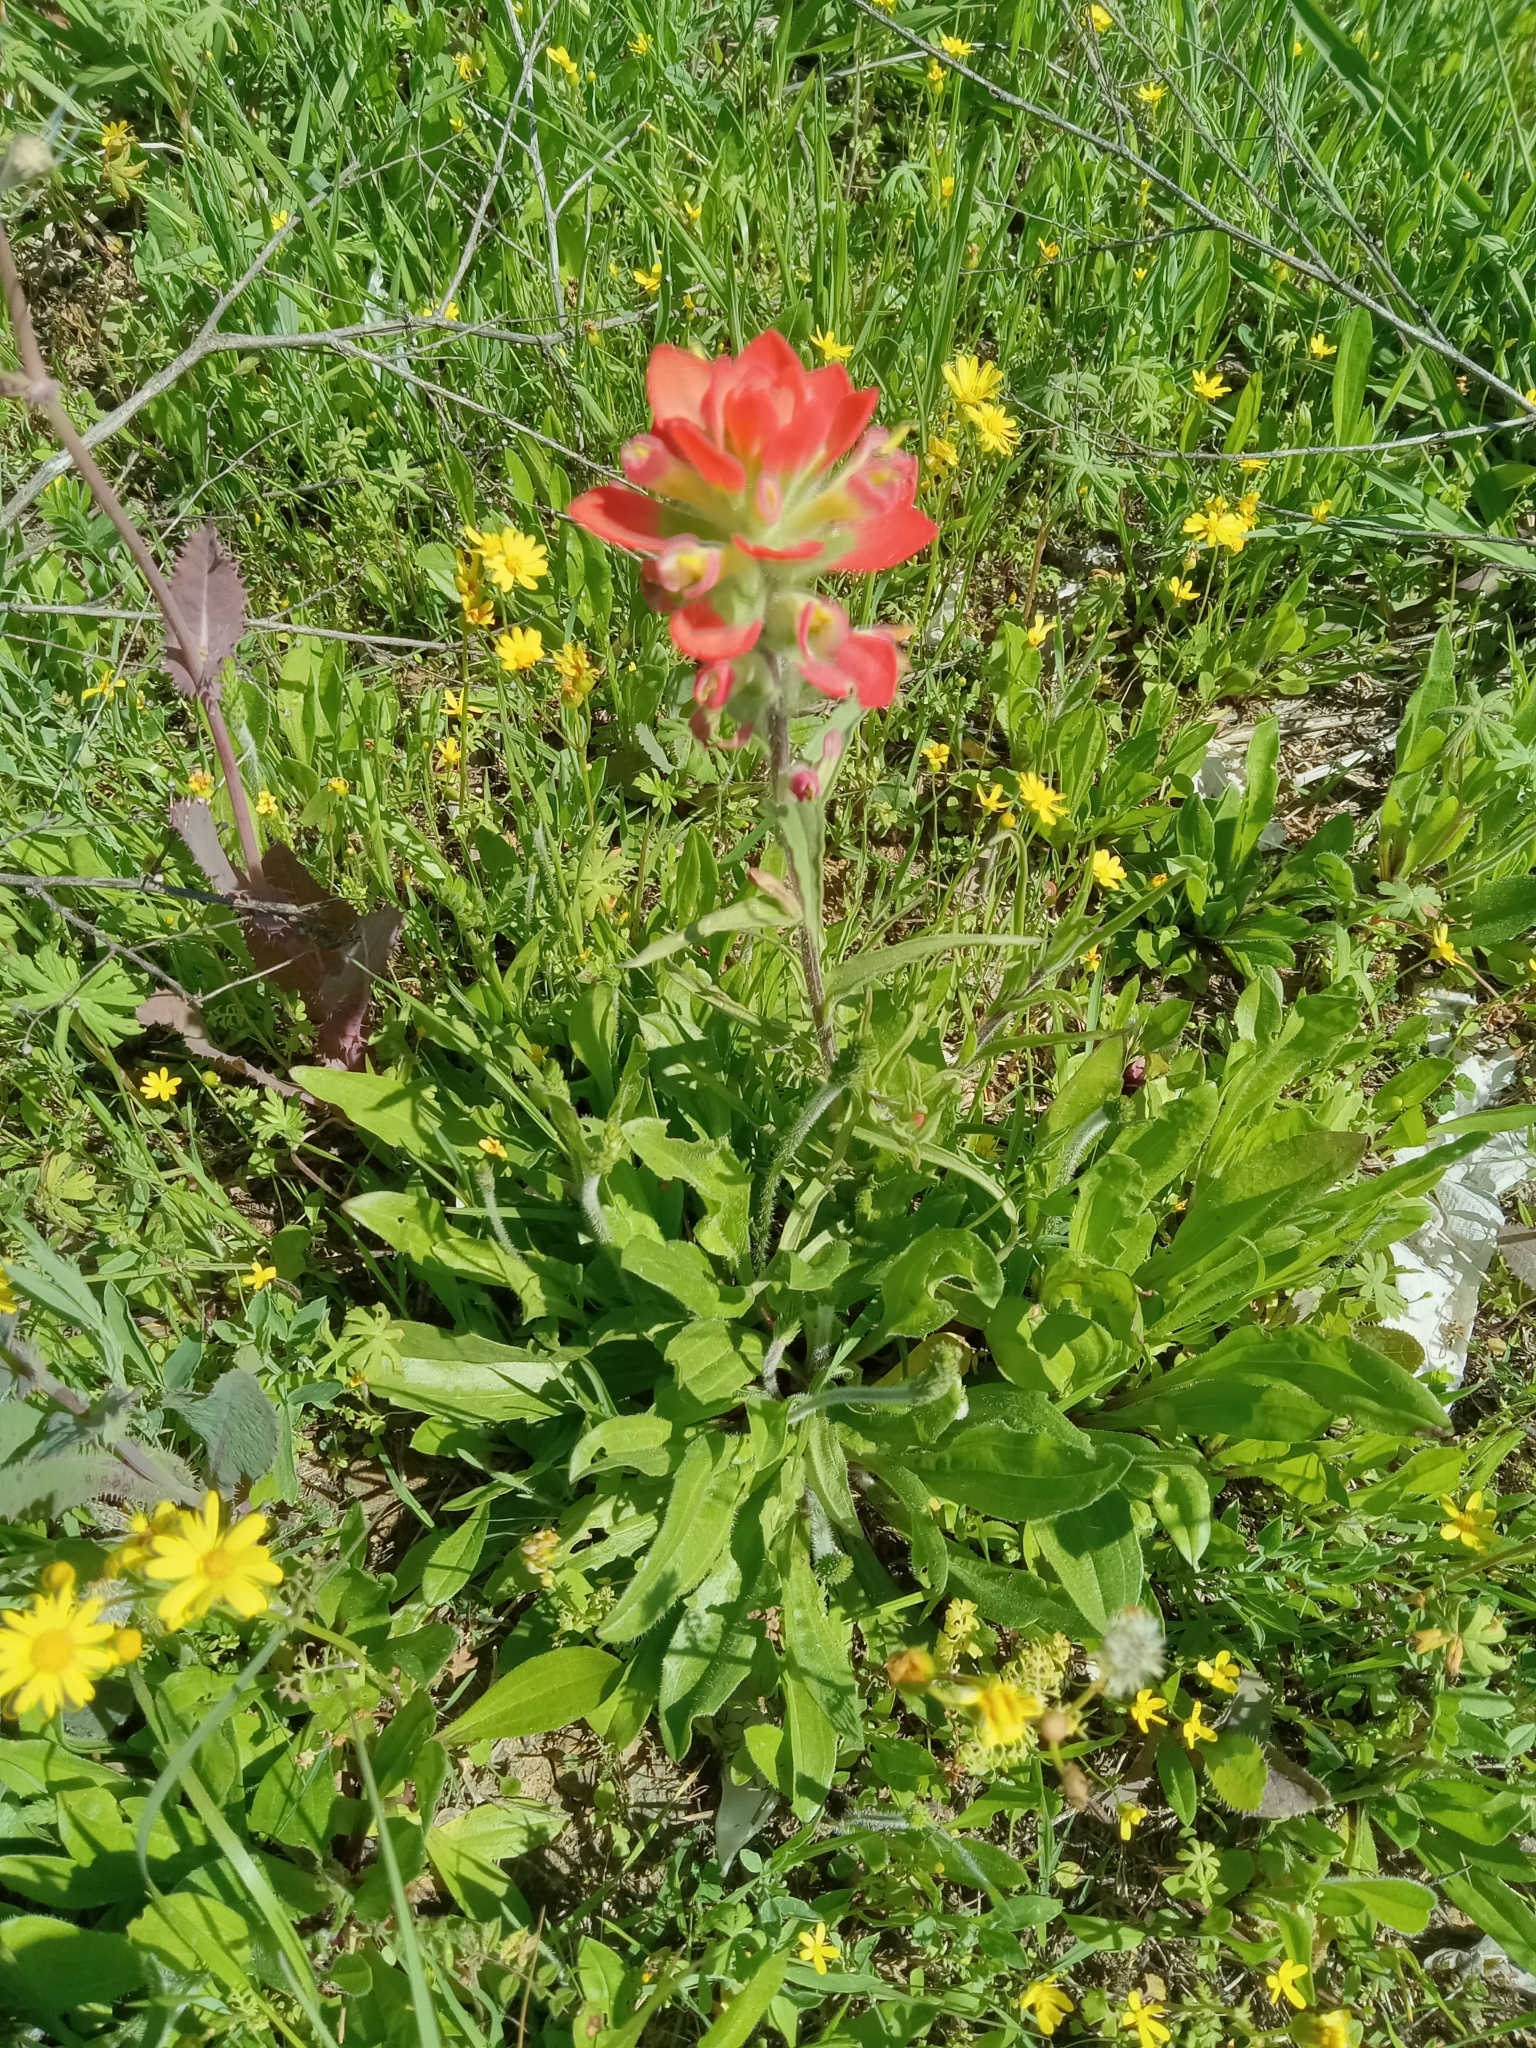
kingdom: Plantae
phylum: Tracheophyta
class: Magnoliopsida
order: Lamiales
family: Orobanchaceae
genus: Castilleja
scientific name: Castilleja indivisa
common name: Texas paintbrush
